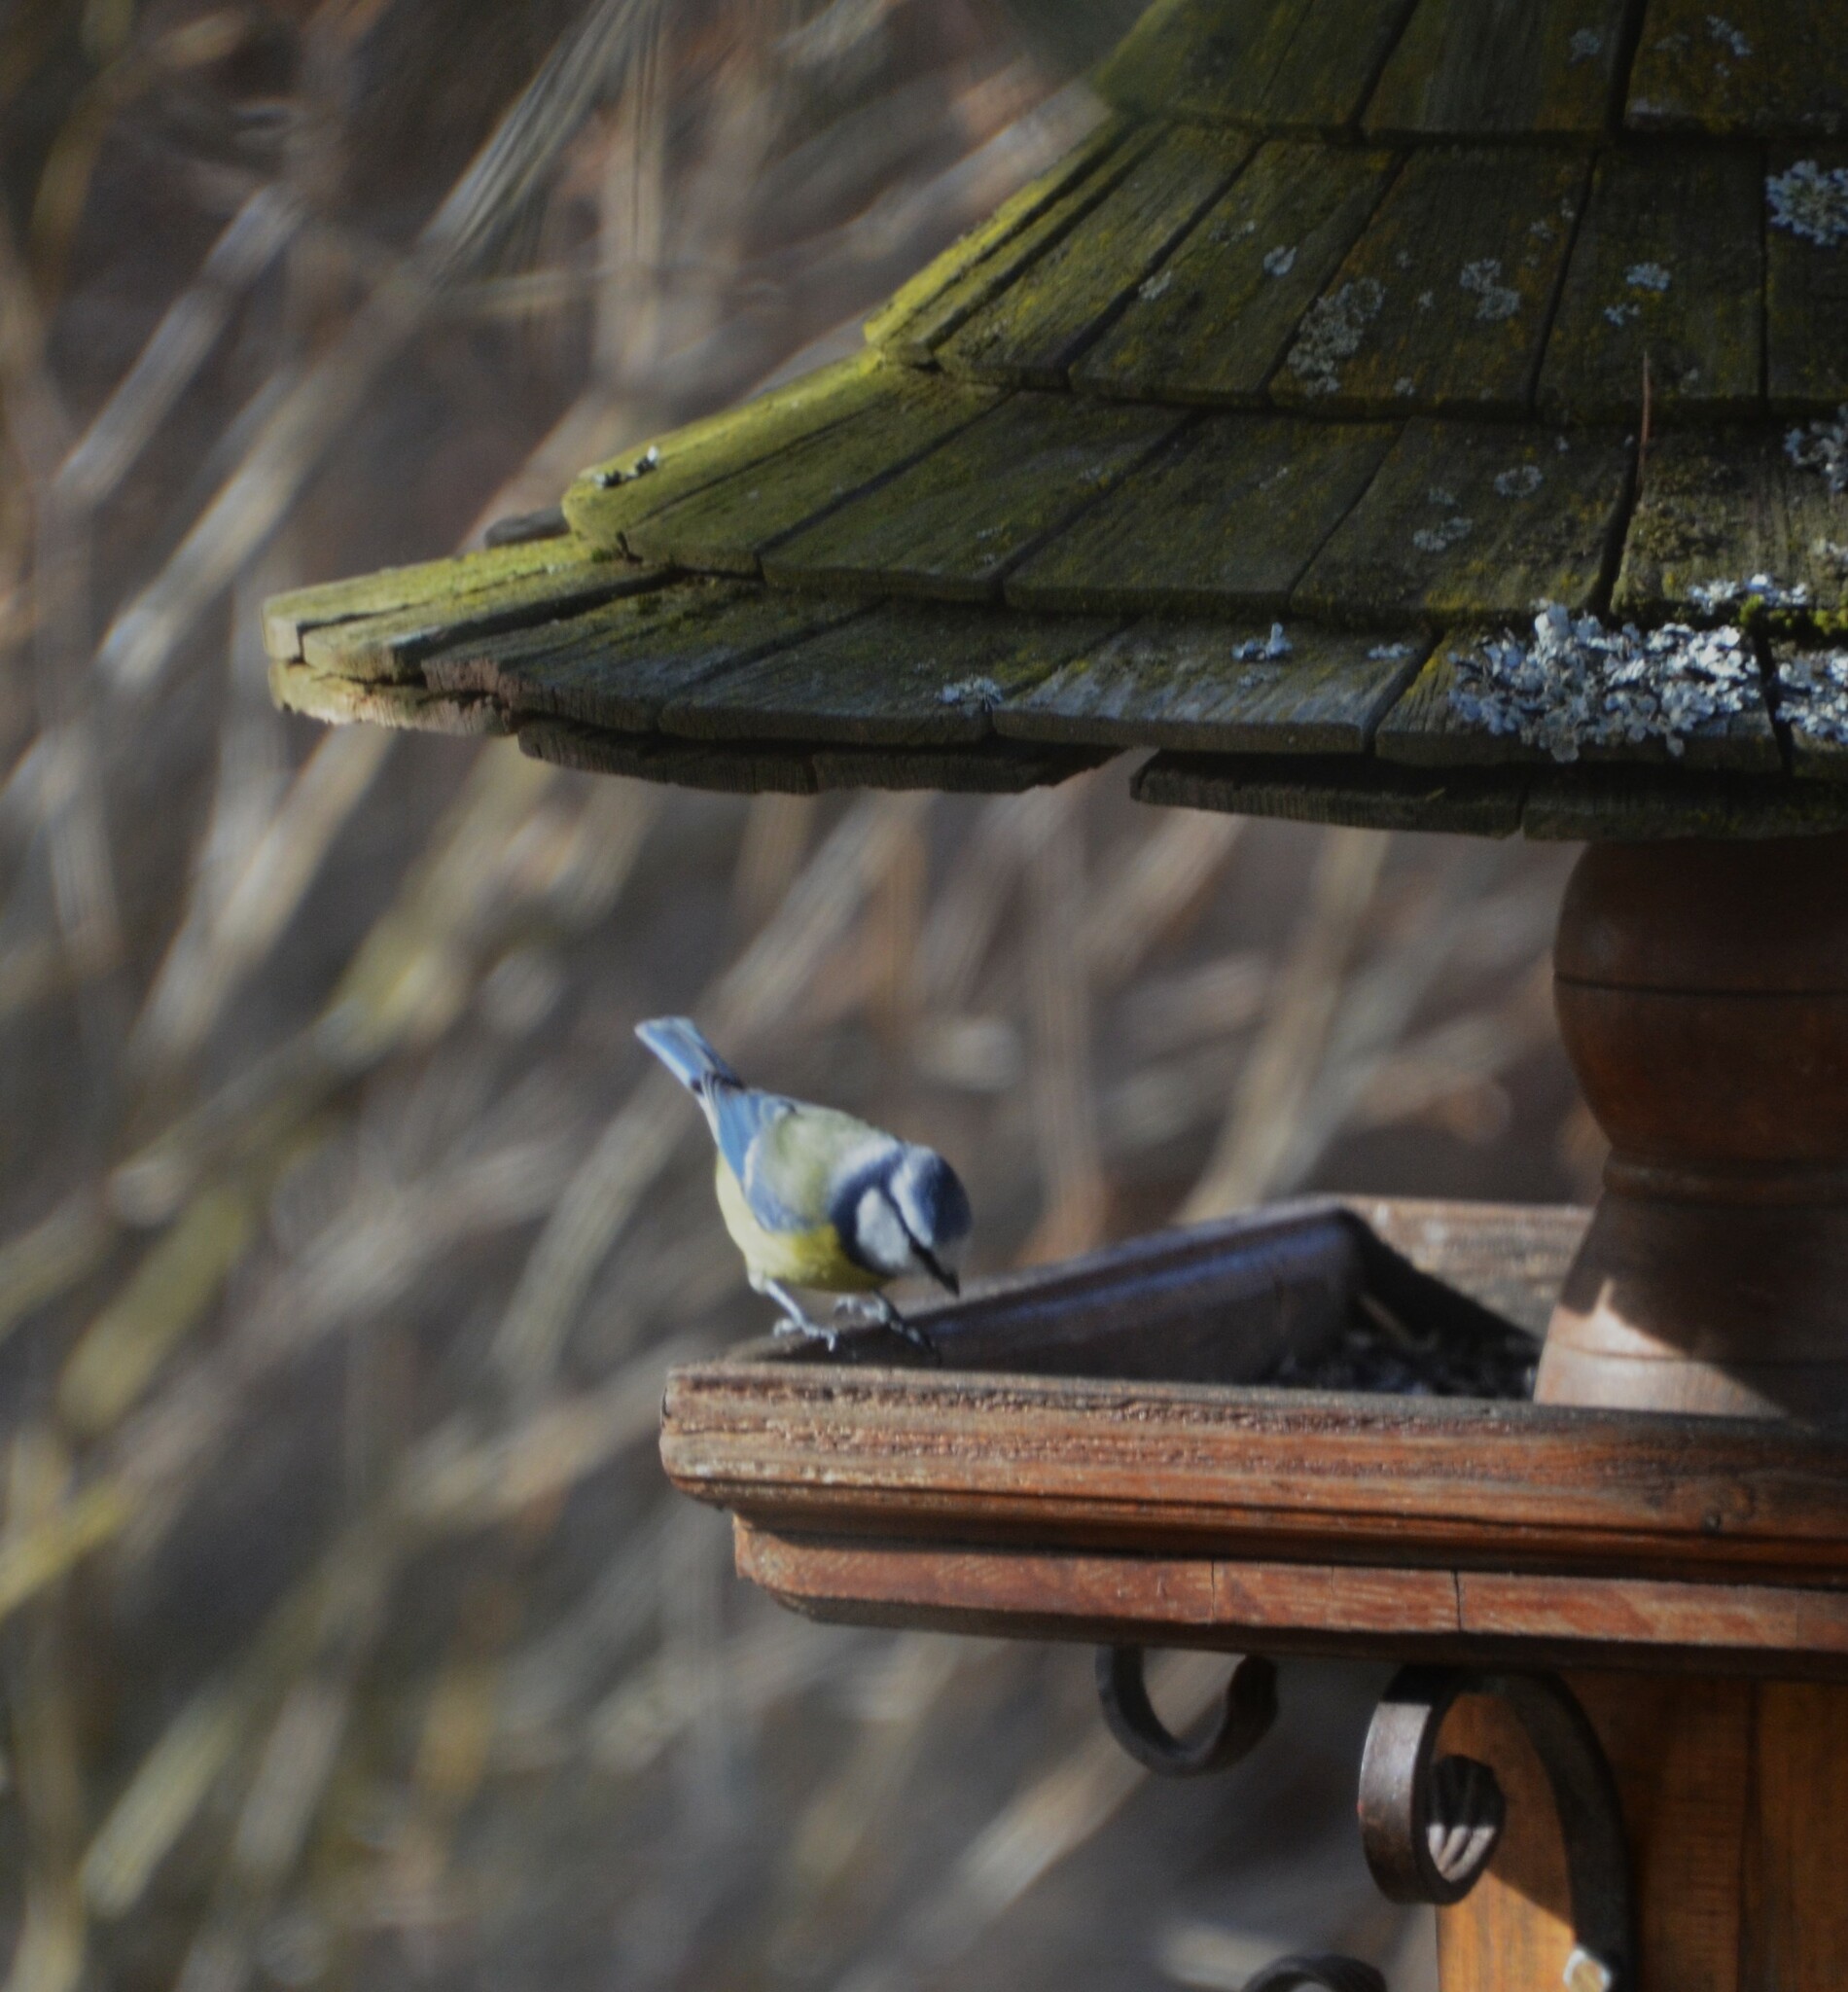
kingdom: Animalia
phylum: Chordata
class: Aves
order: Passeriformes
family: Paridae
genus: Cyanistes
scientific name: Cyanistes caeruleus
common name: Eurasian blue tit
